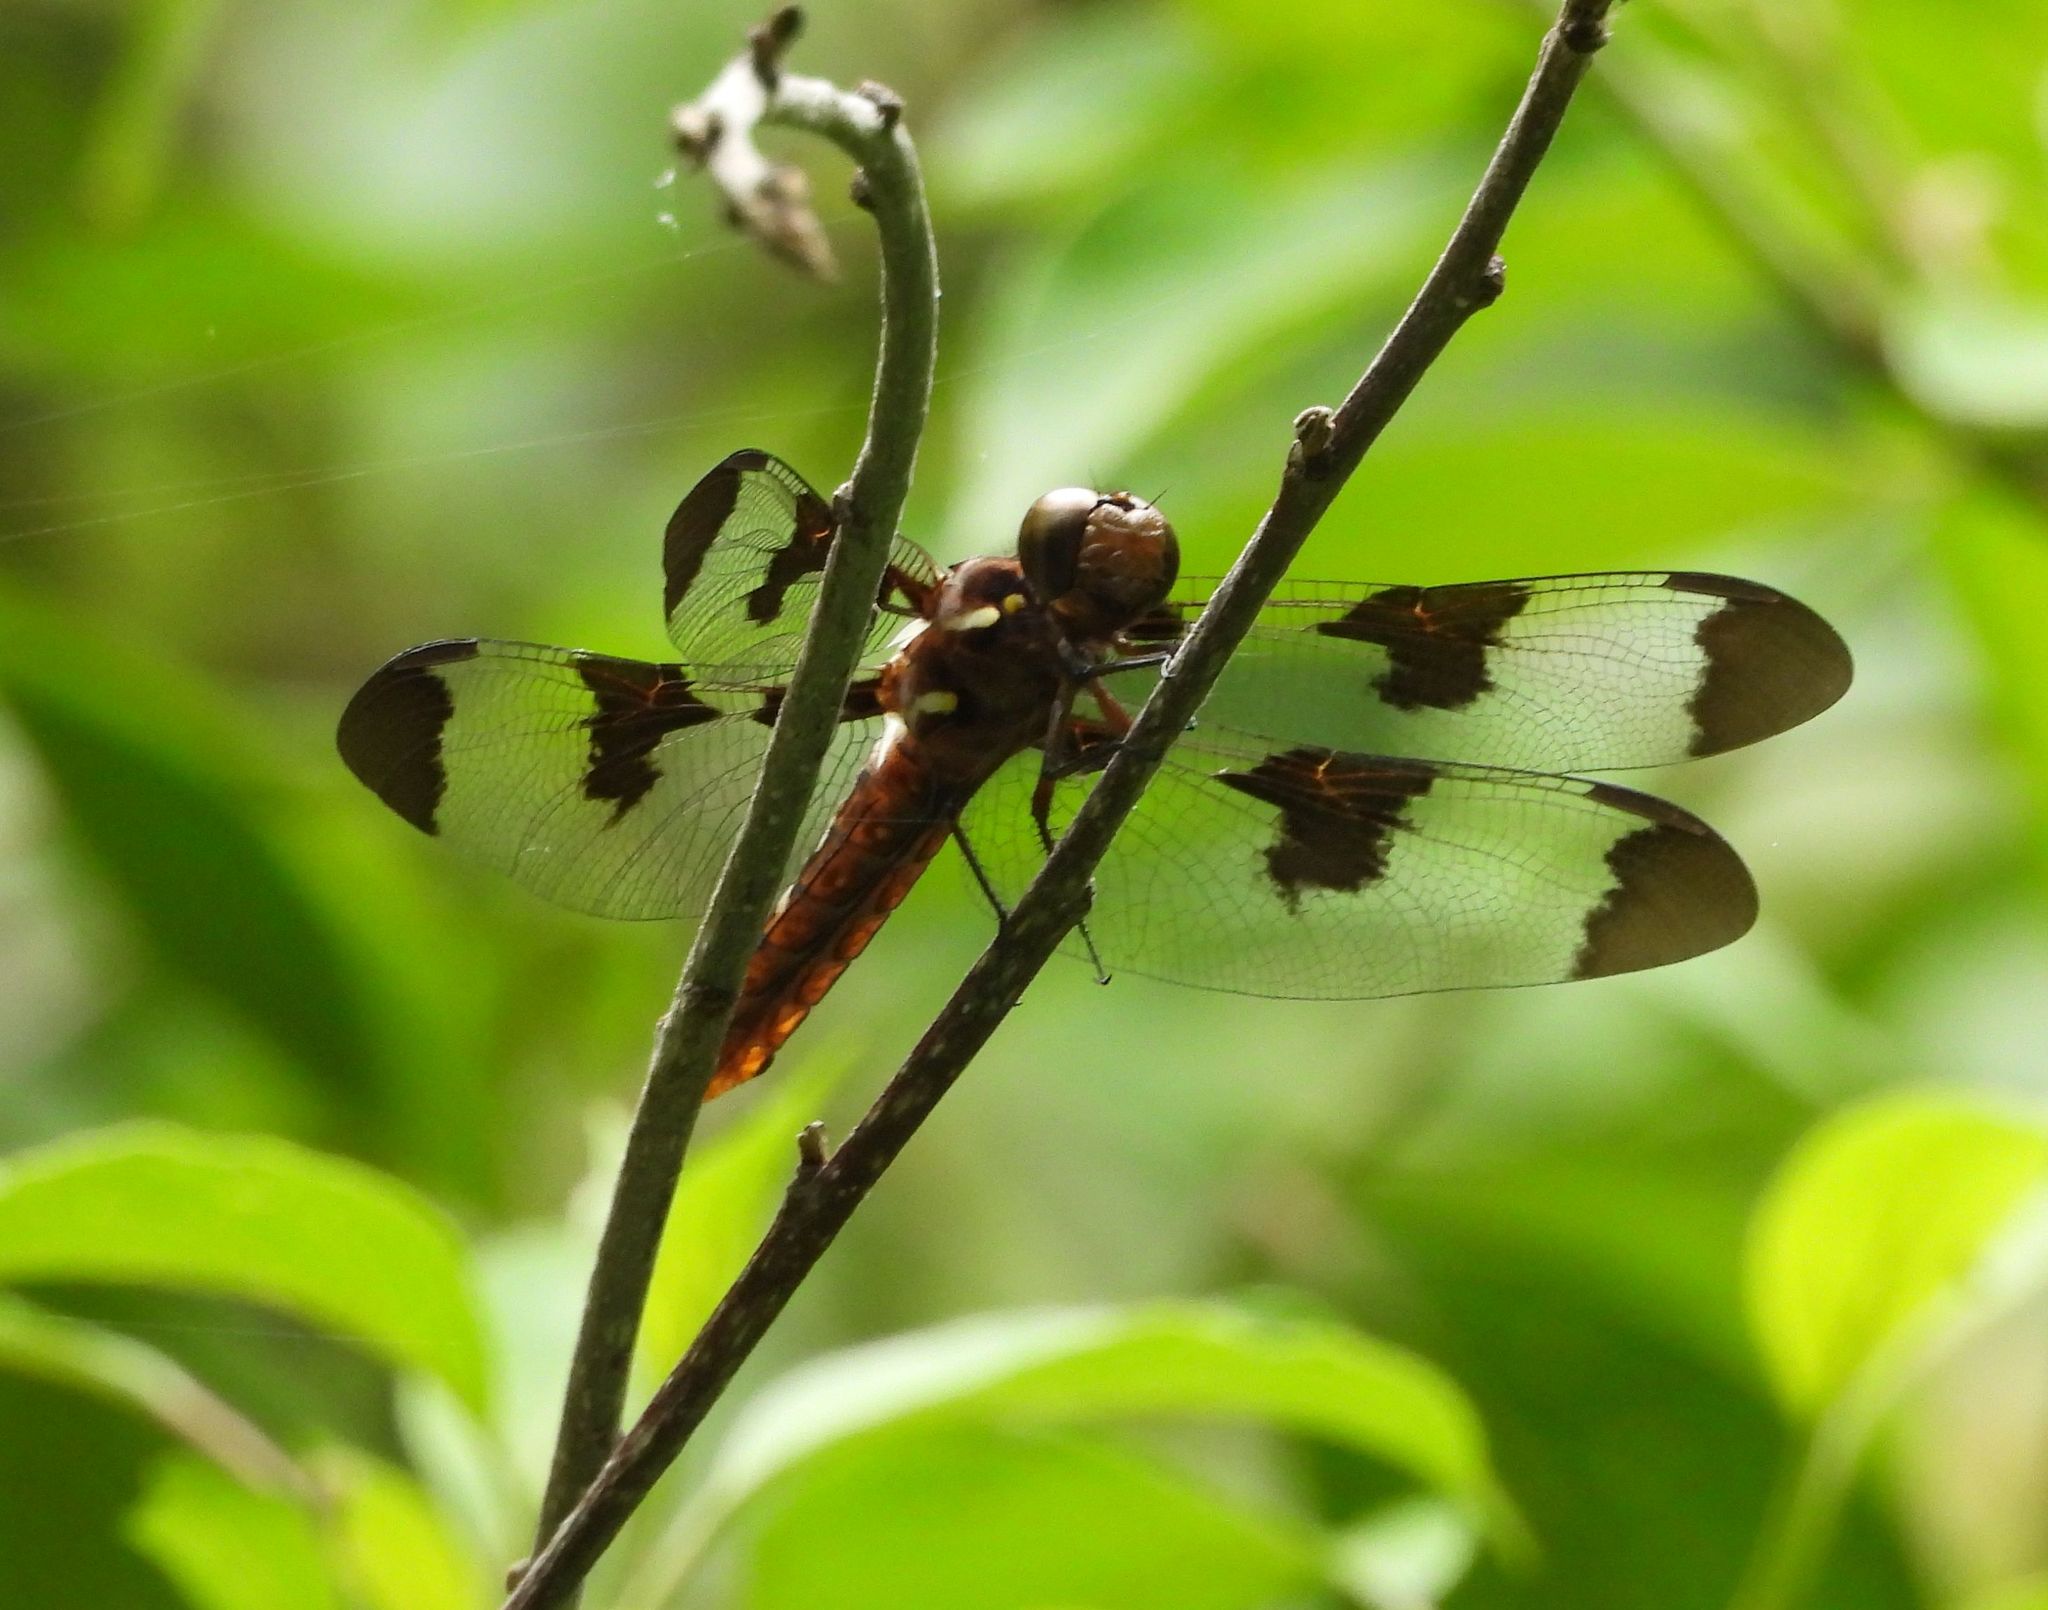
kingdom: Animalia
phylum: Arthropoda
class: Insecta
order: Odonata
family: Libellulidae
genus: Plathemis
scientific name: Plathemis lydia
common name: Common whitetail
